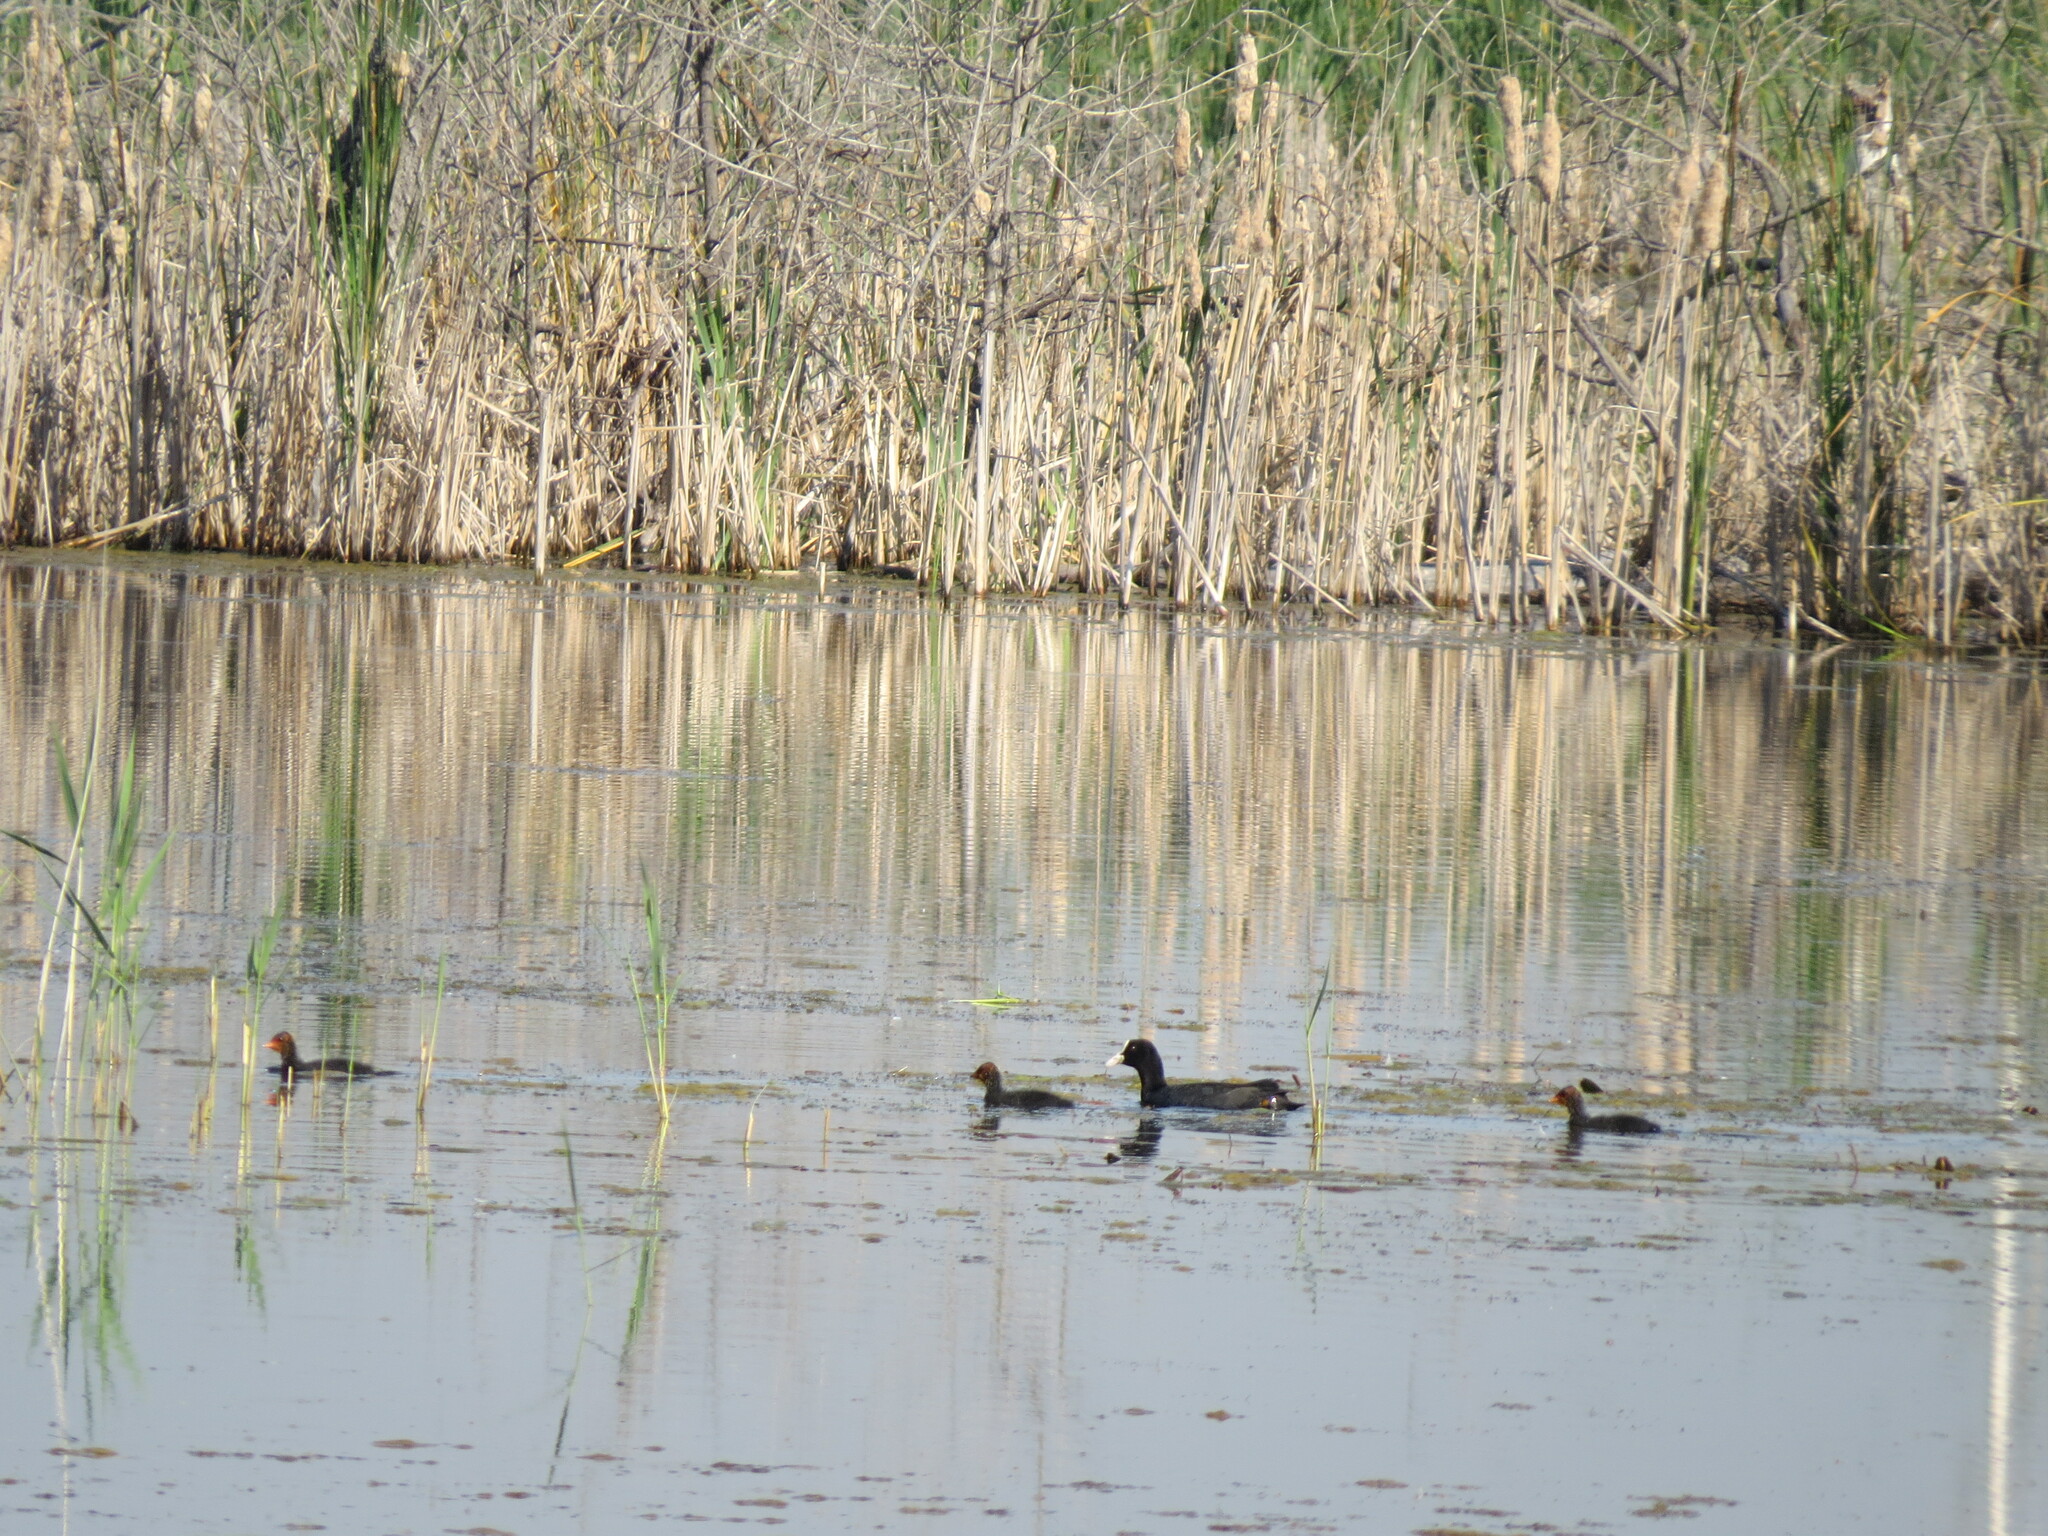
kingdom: Animalia
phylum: Chordata
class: Aves
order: Gruiformes
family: Rallidae
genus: Fulica
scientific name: Fulica atra
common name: Eurasian coot
